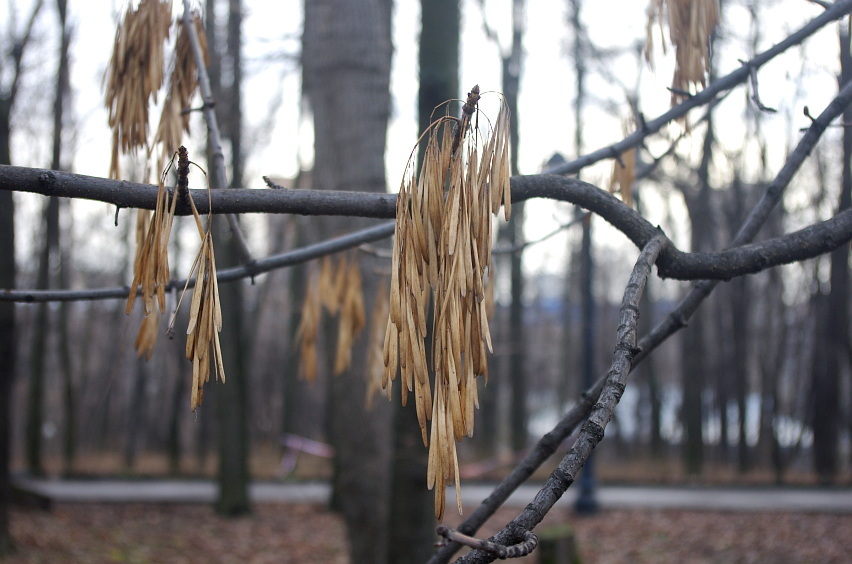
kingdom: Plantae
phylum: Tracheophyta
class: Magnoliopsida
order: Lamiales
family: Oleaceae
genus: Fraxinus
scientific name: Fraxinus pennsylvanica
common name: Green ash
